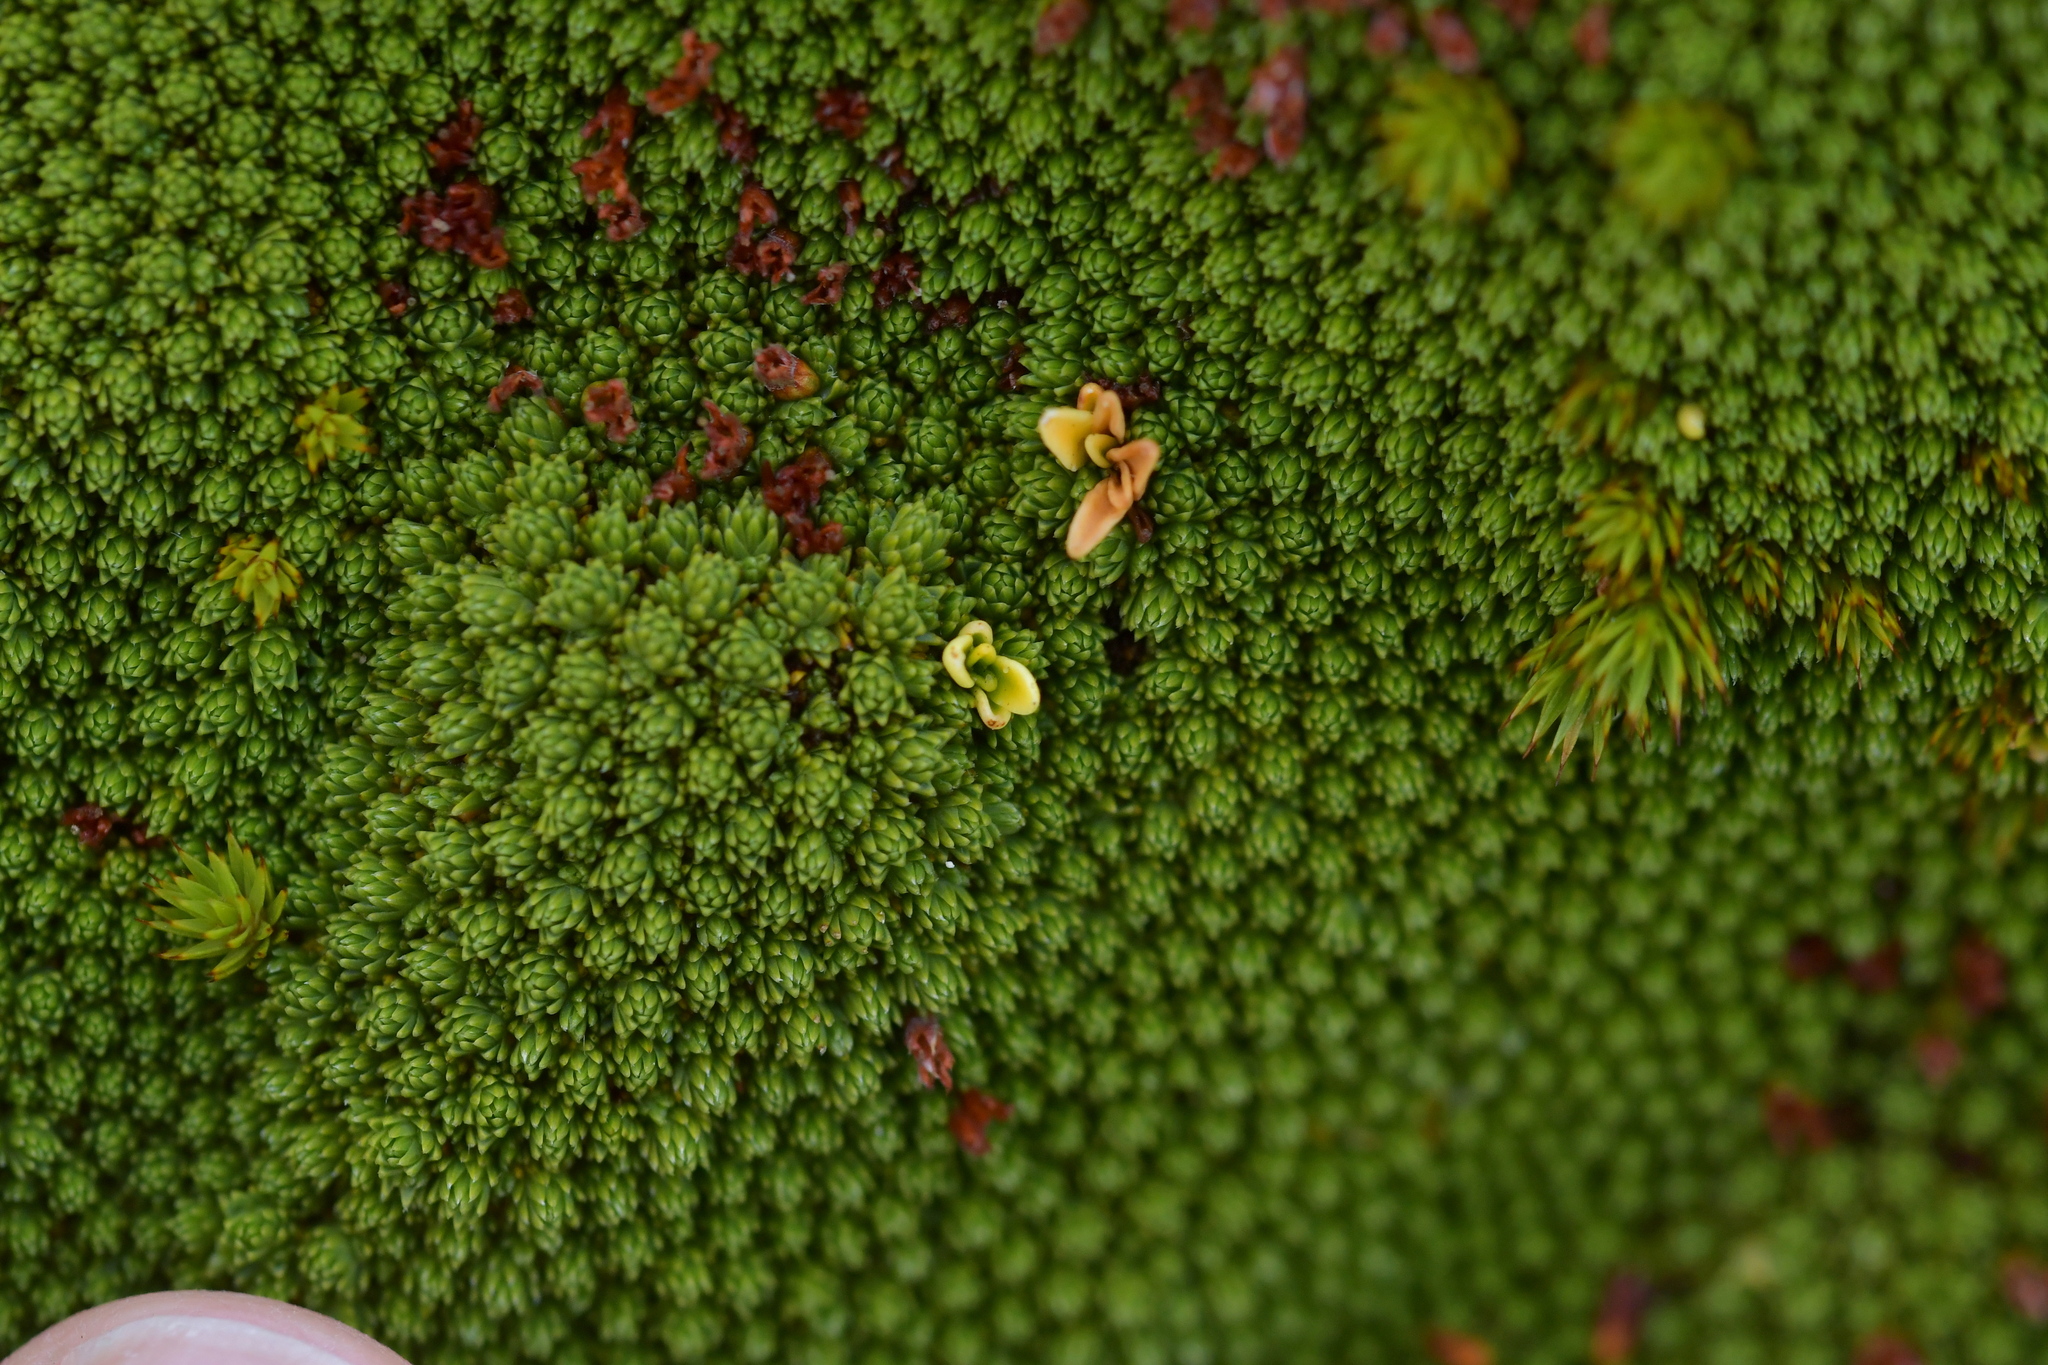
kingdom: Plantae
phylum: Tracheophyta
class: Magnoliopsida
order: Malvales
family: Thymelaeaceae
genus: Kelleria
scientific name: Kelleria childii
